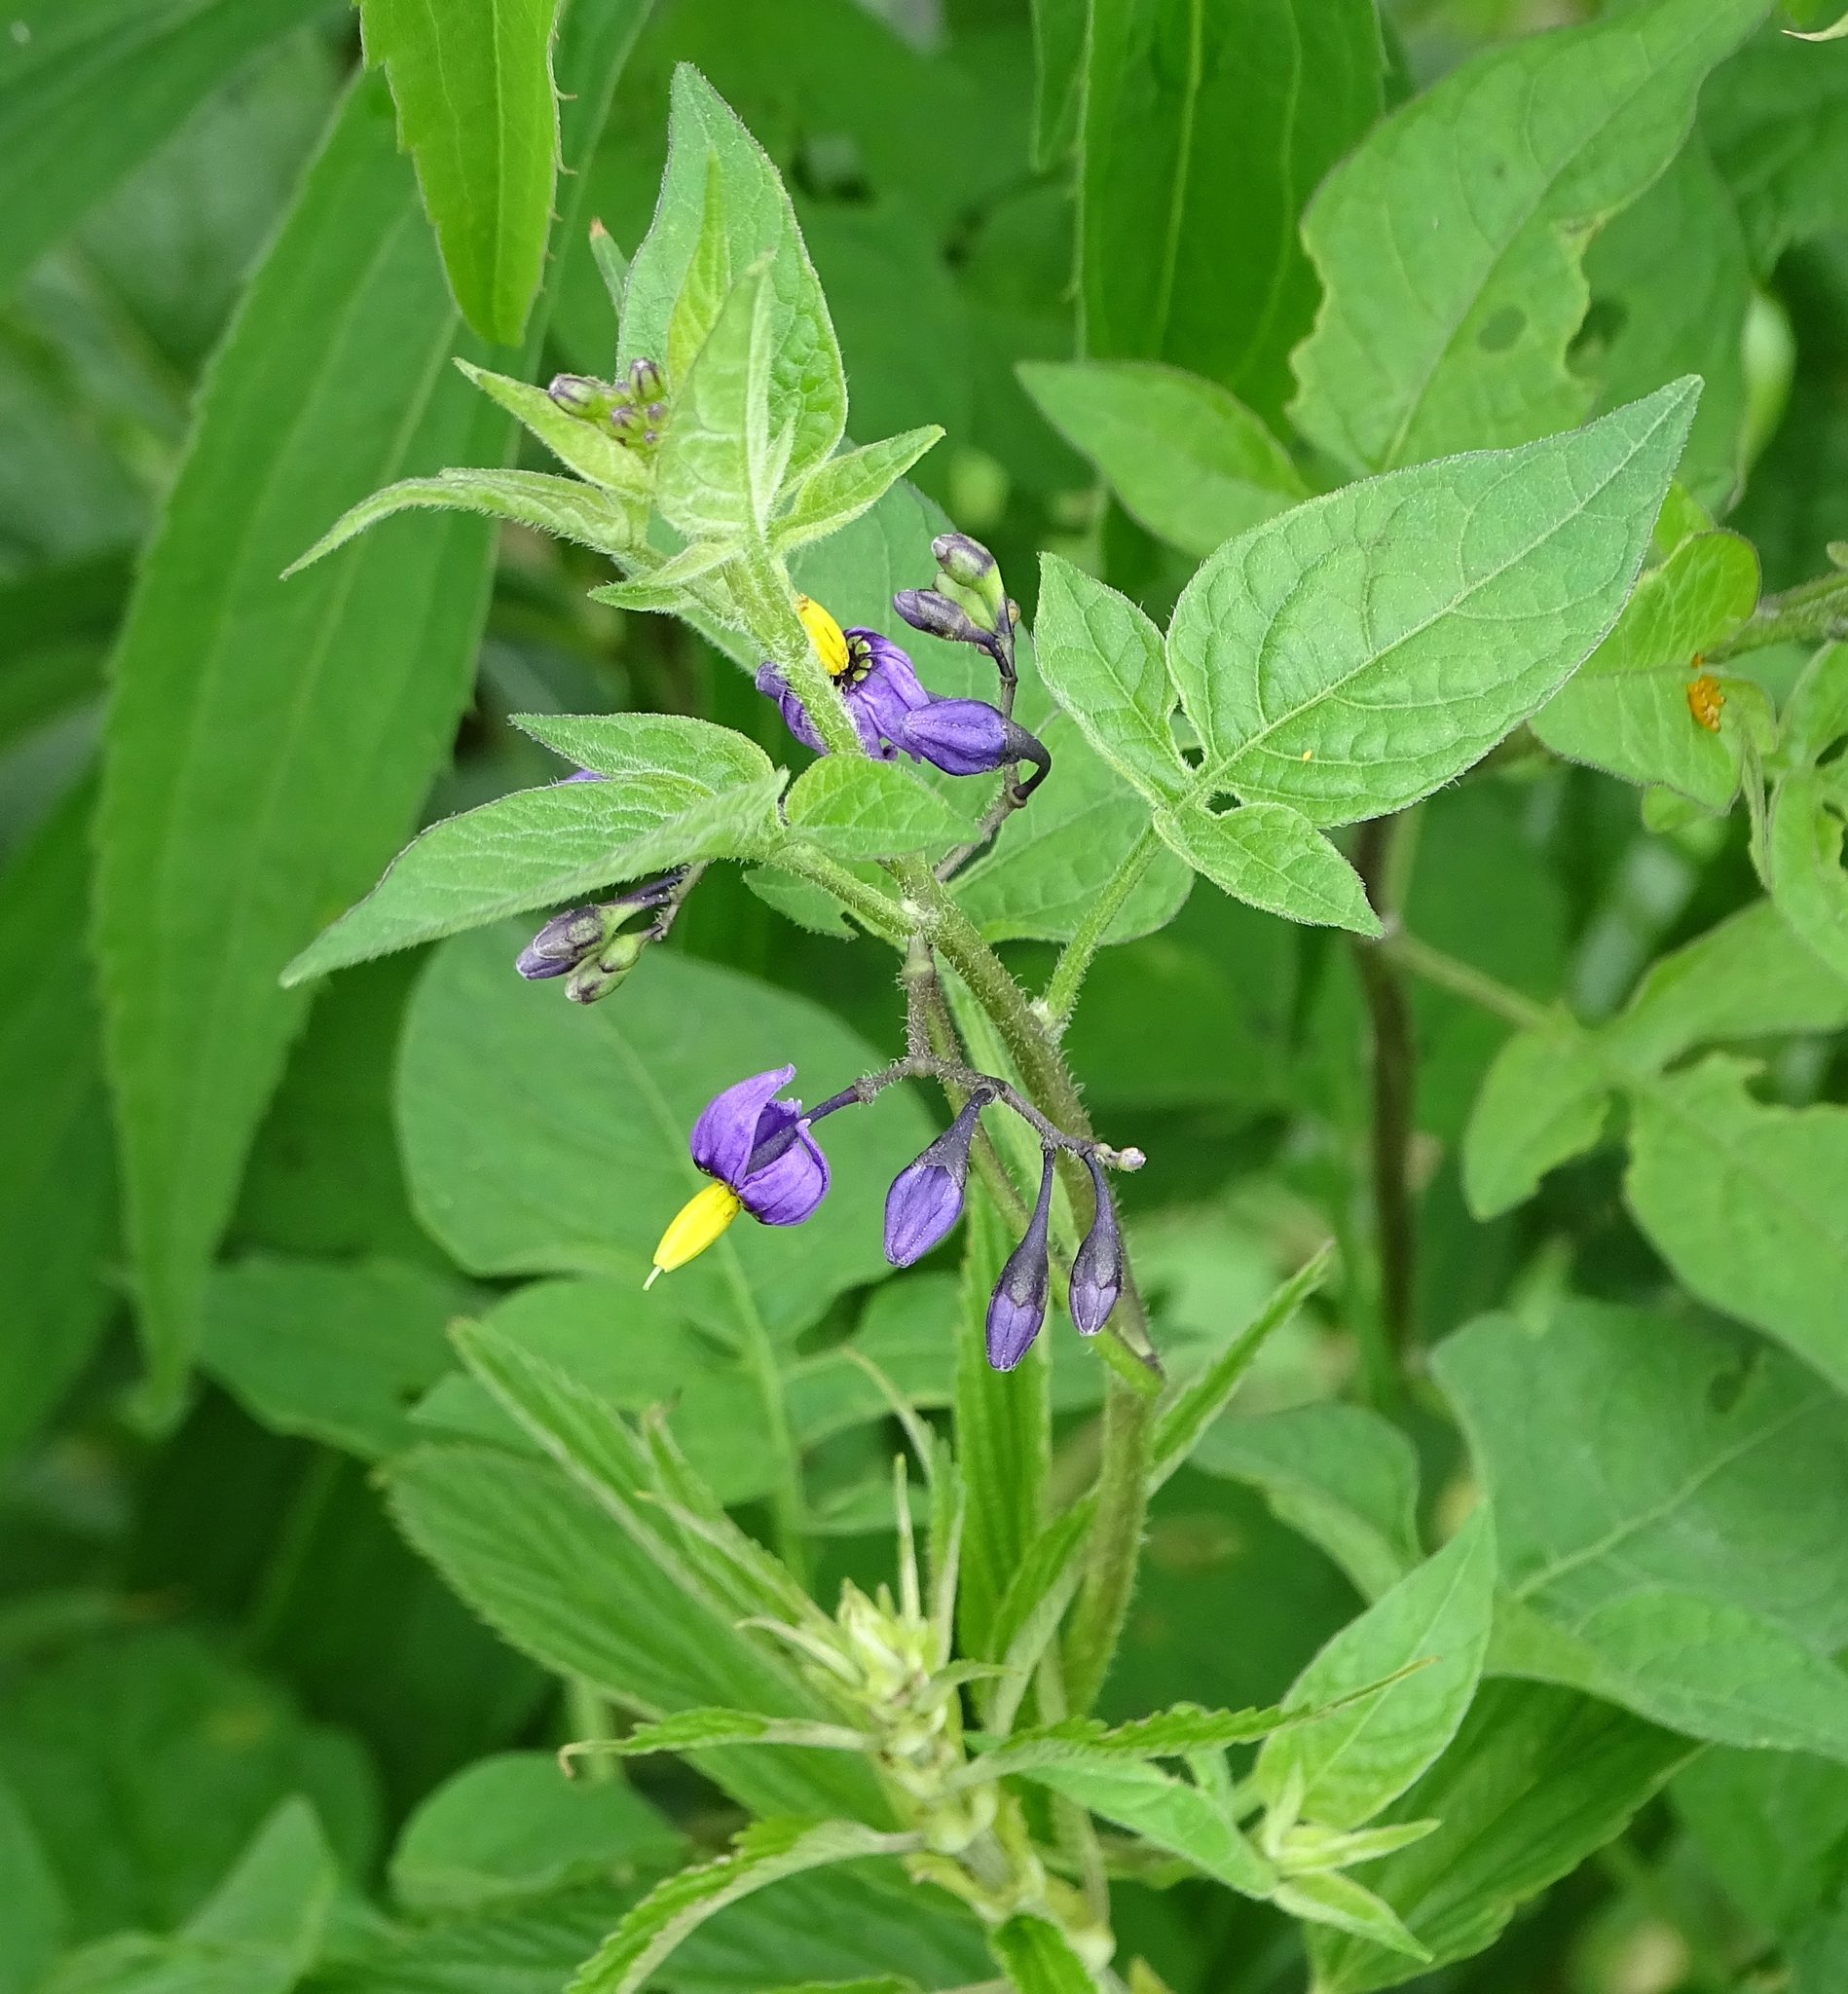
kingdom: Plantae
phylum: Tracheophyta
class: Magnoliopsida
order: Solanales
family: Solanaceae
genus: Solanum
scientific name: Solanum dulcamara
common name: Climbing nightshade
